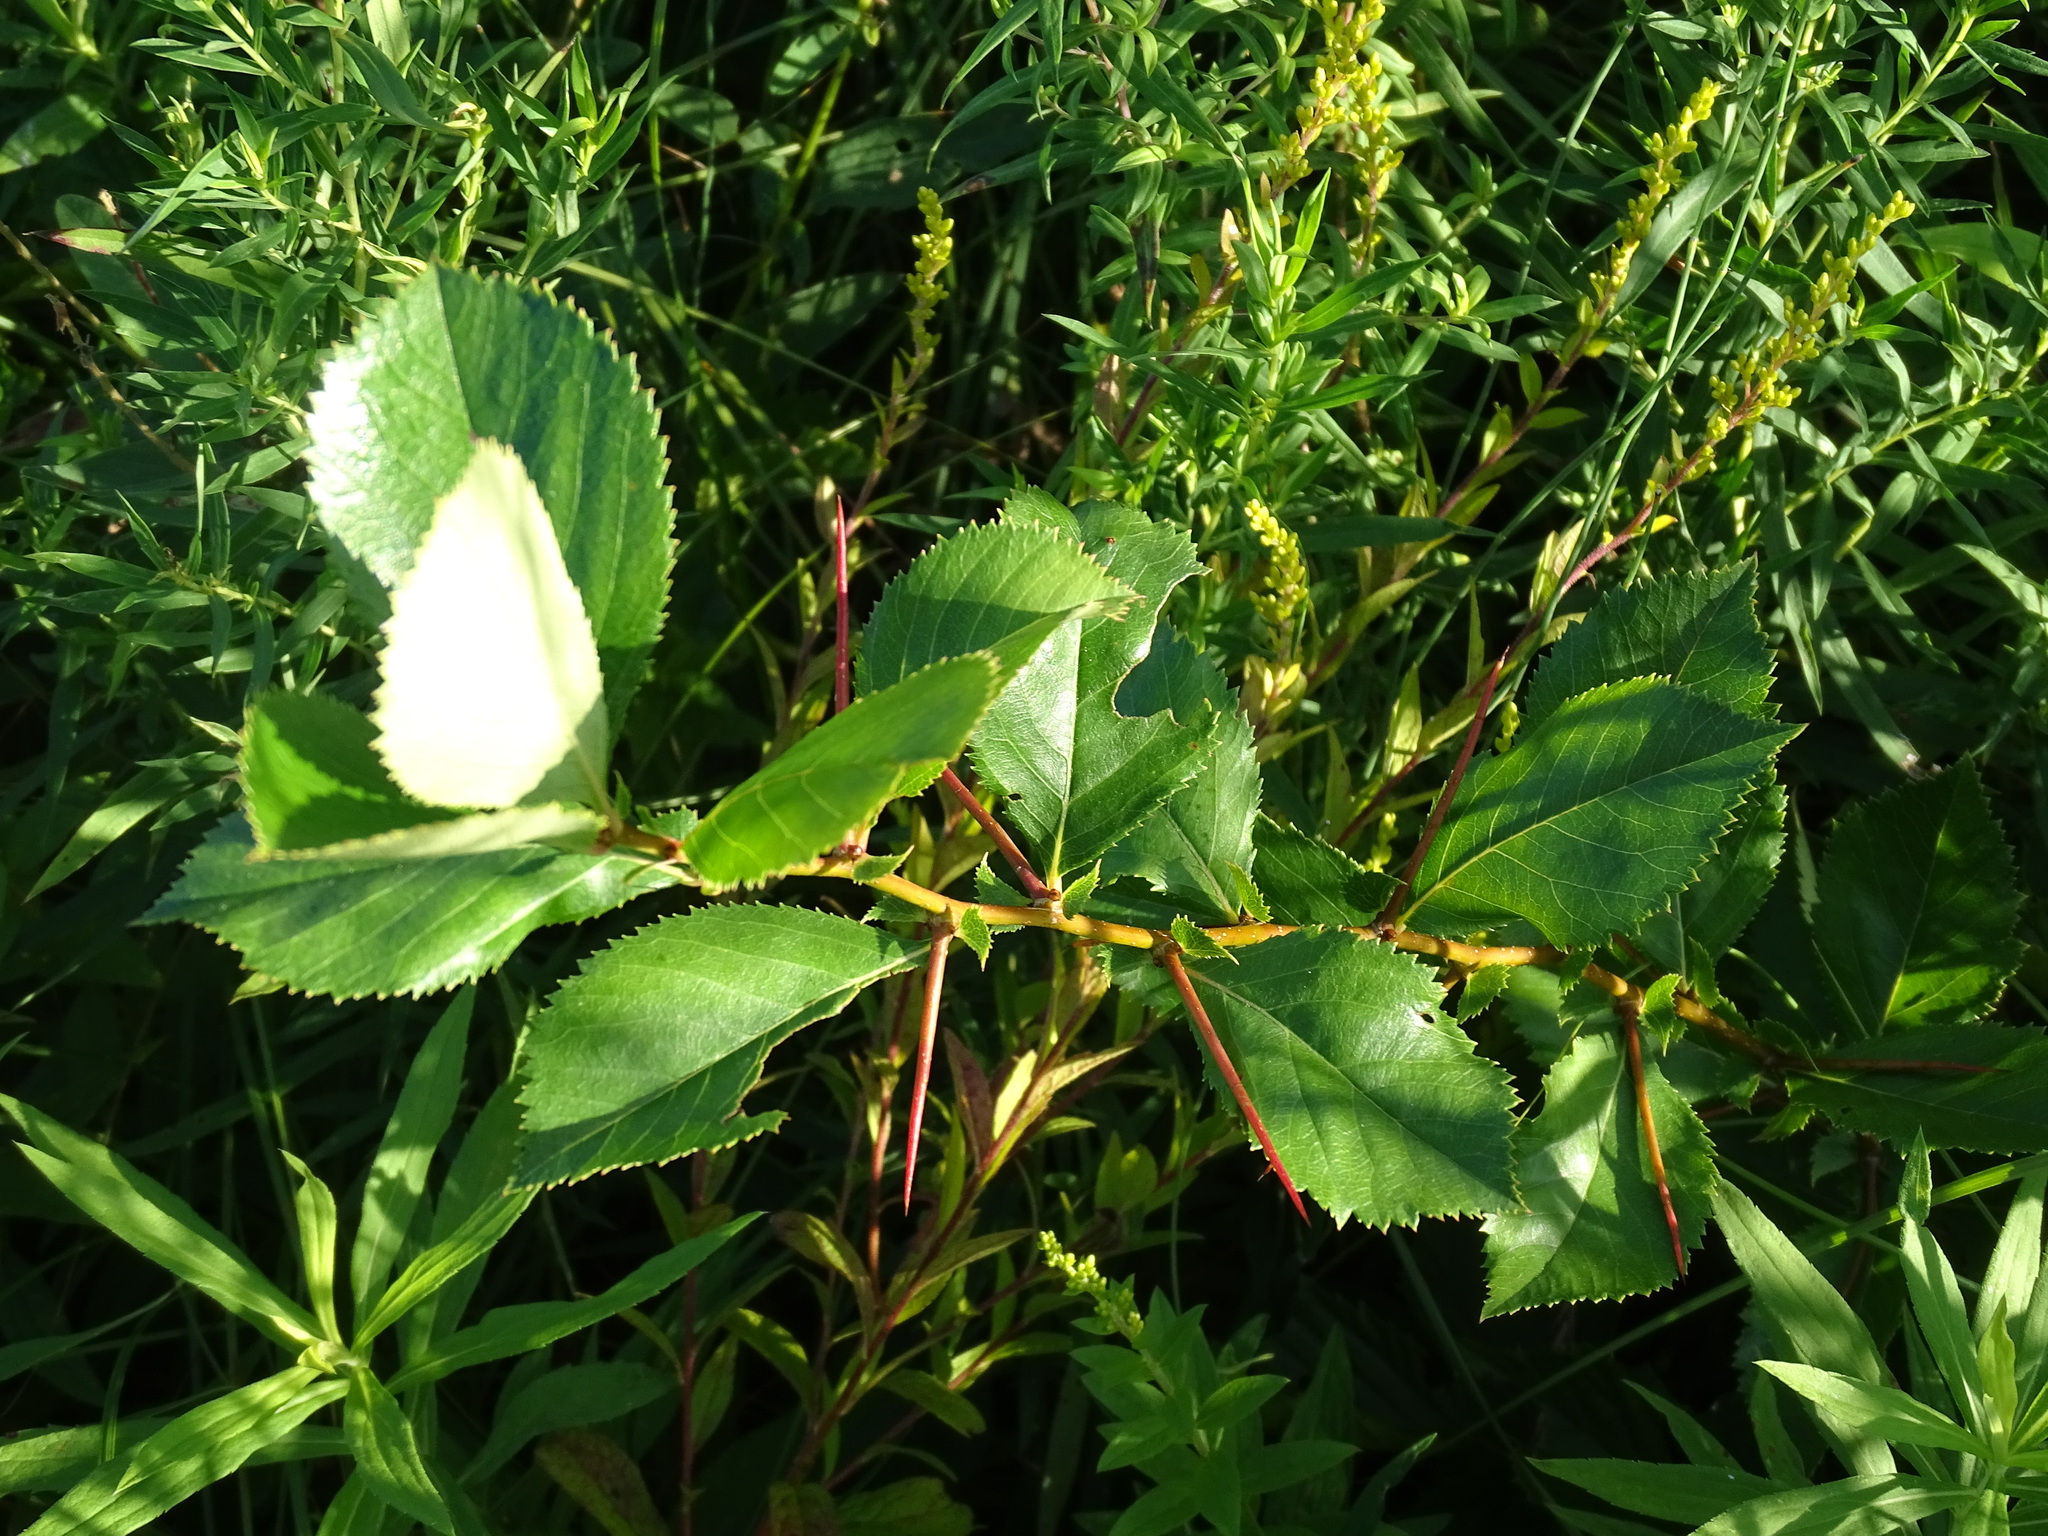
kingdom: Plantae
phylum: Tracheophyta
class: Magnoliopsida
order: Rosales
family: Rosaceae
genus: Crataegus
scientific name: Crataegus crus-galli
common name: Cockspurthorn
